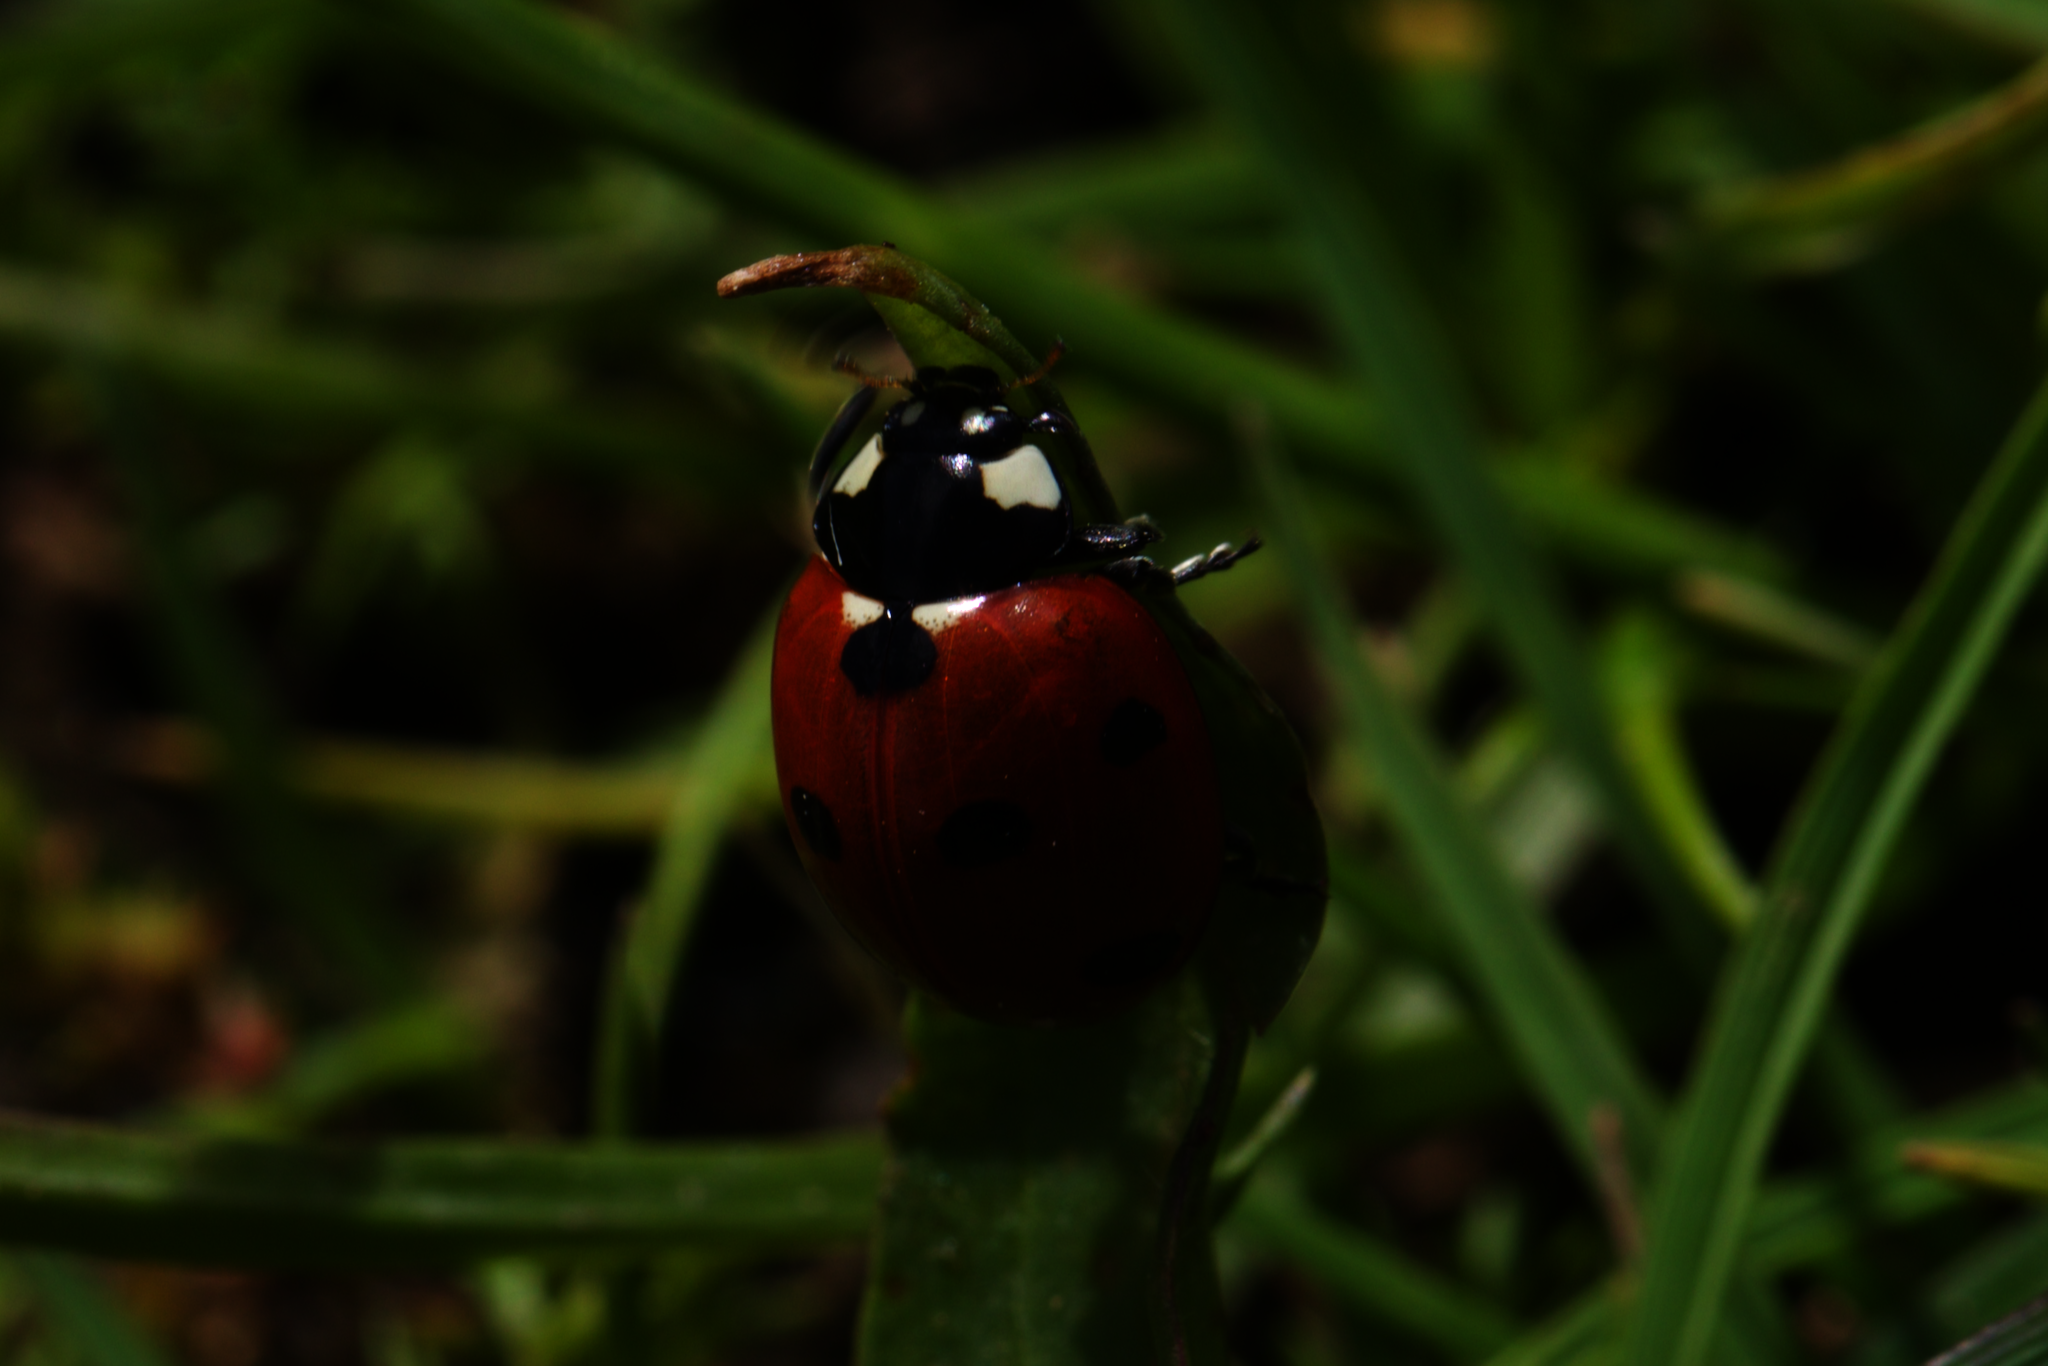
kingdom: Animalia
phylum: Arthropoda
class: Insecta
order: Coleoptera
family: Coccinellidae
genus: Coccinella
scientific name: Coccinella septempunctata
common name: Sevenspotted lady beetle
